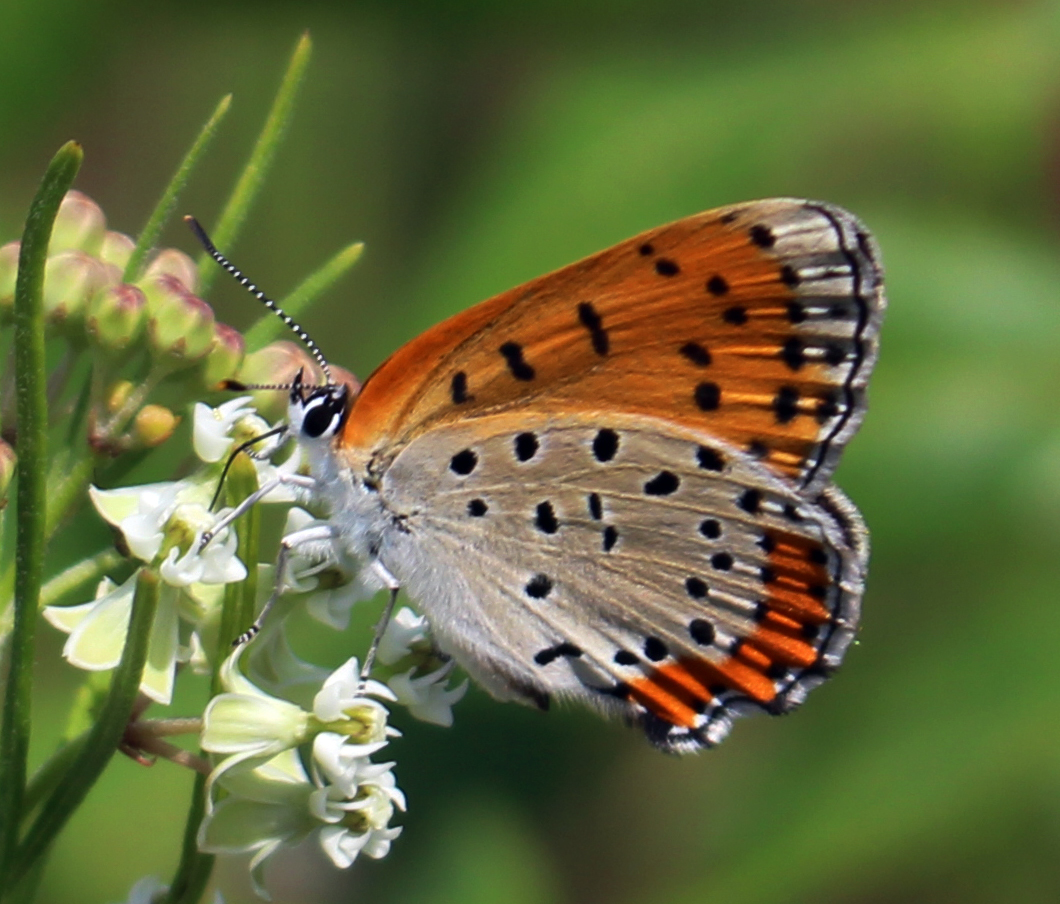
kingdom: Animalia
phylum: Arthropoda
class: Insecta
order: Lepidoptera
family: Lycaenidae
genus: Tharsalea
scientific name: Tharsalea hyllus
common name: Bronze copper
